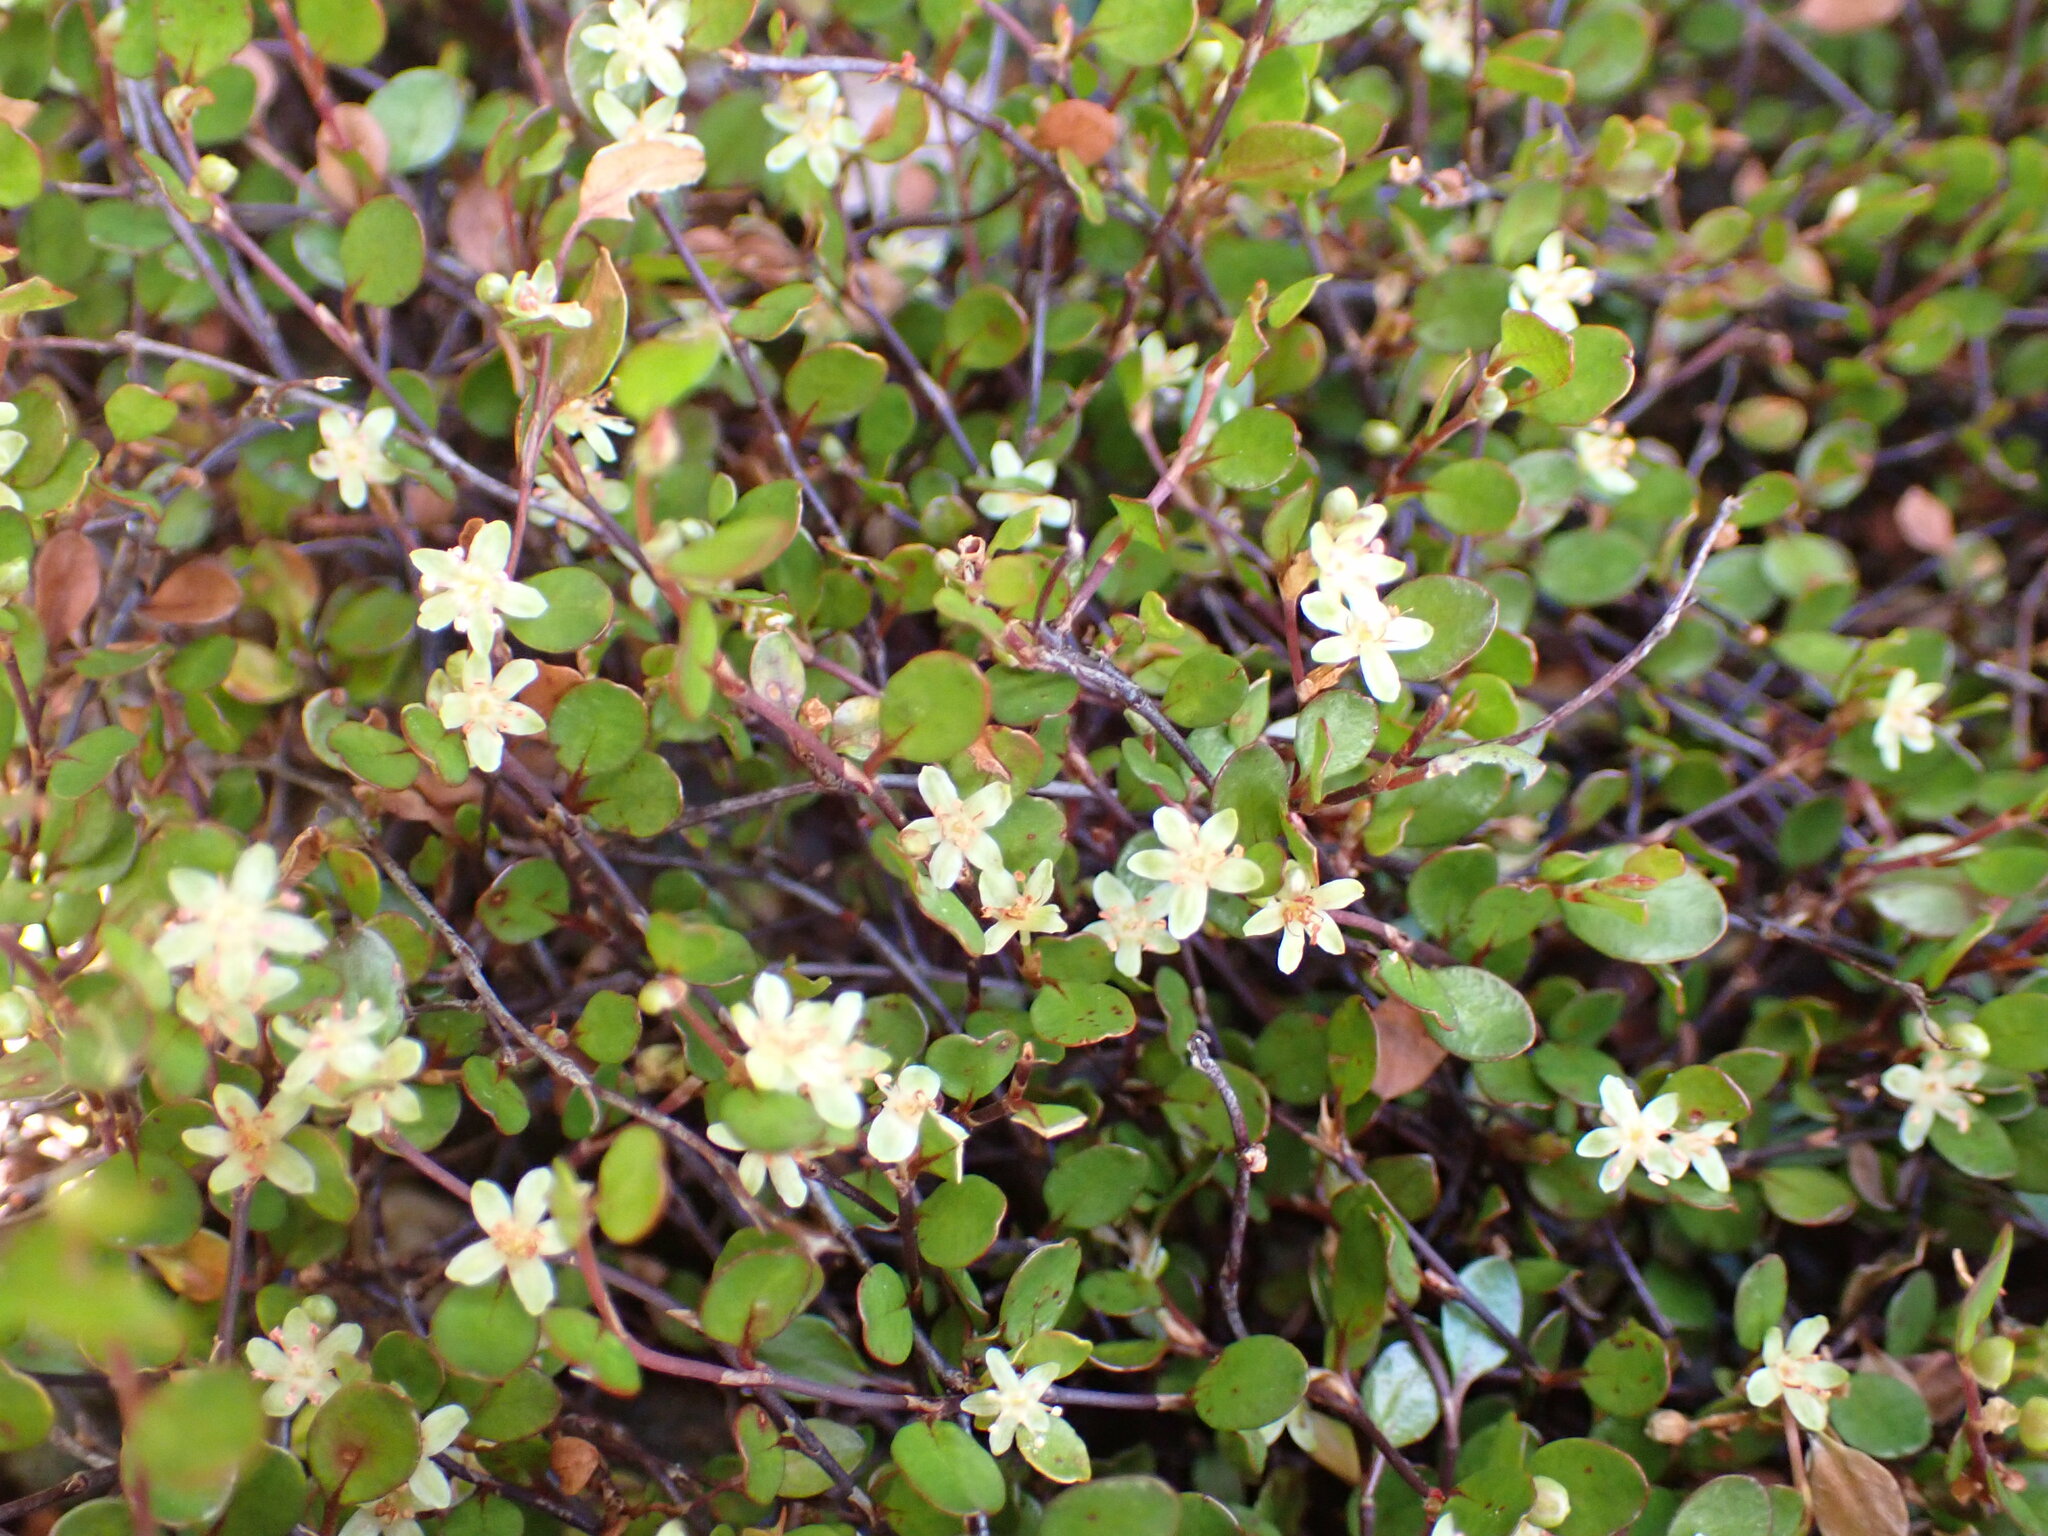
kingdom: Plantae
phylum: Tracheophyta
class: Magnoliopsida
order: Caryophyllales
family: Polygonaceae
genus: Muehlenbeckia
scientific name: Muehlenbeckia axillaris
